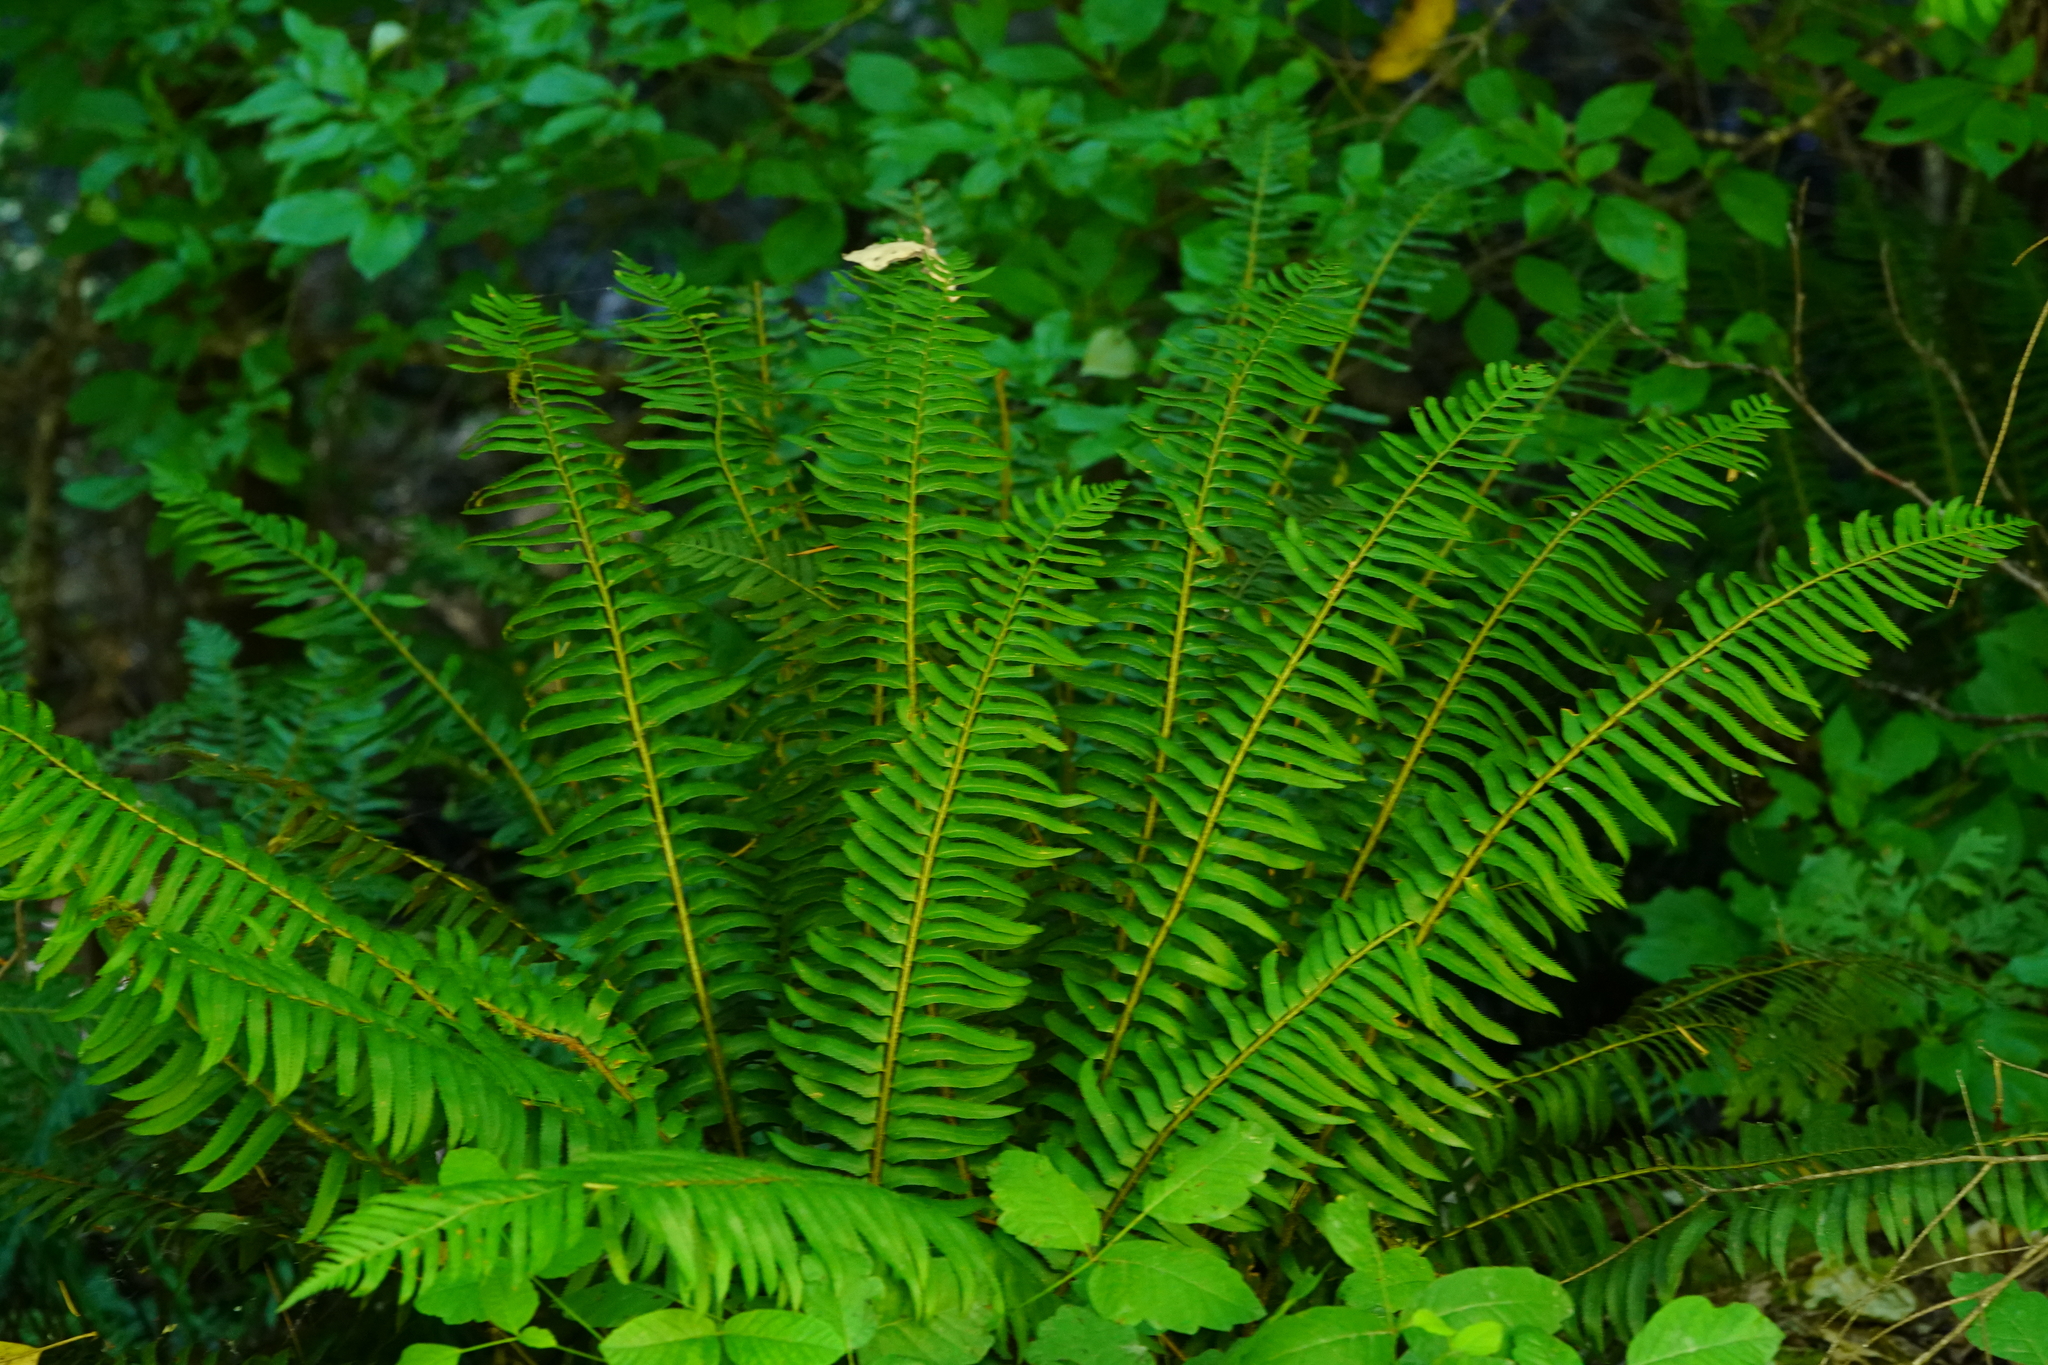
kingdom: Plantae
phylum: Tracheophyta
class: Polypodiopsida
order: Polypodiales
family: Dryopteridaceae
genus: Polystichum
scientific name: Polystichum munitum
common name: Western sword-fern
